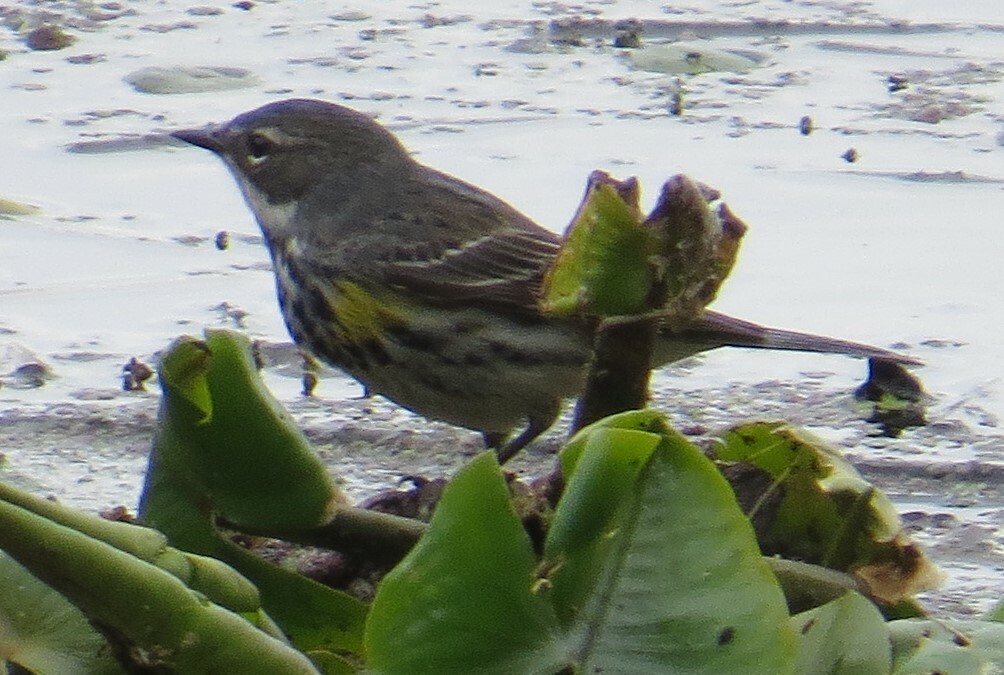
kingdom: Animalia
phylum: Chordata
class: Aves
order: Passeriformes
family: Parulidae
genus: Setophaga
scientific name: Setophaga coronata
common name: Myrtle warbler
